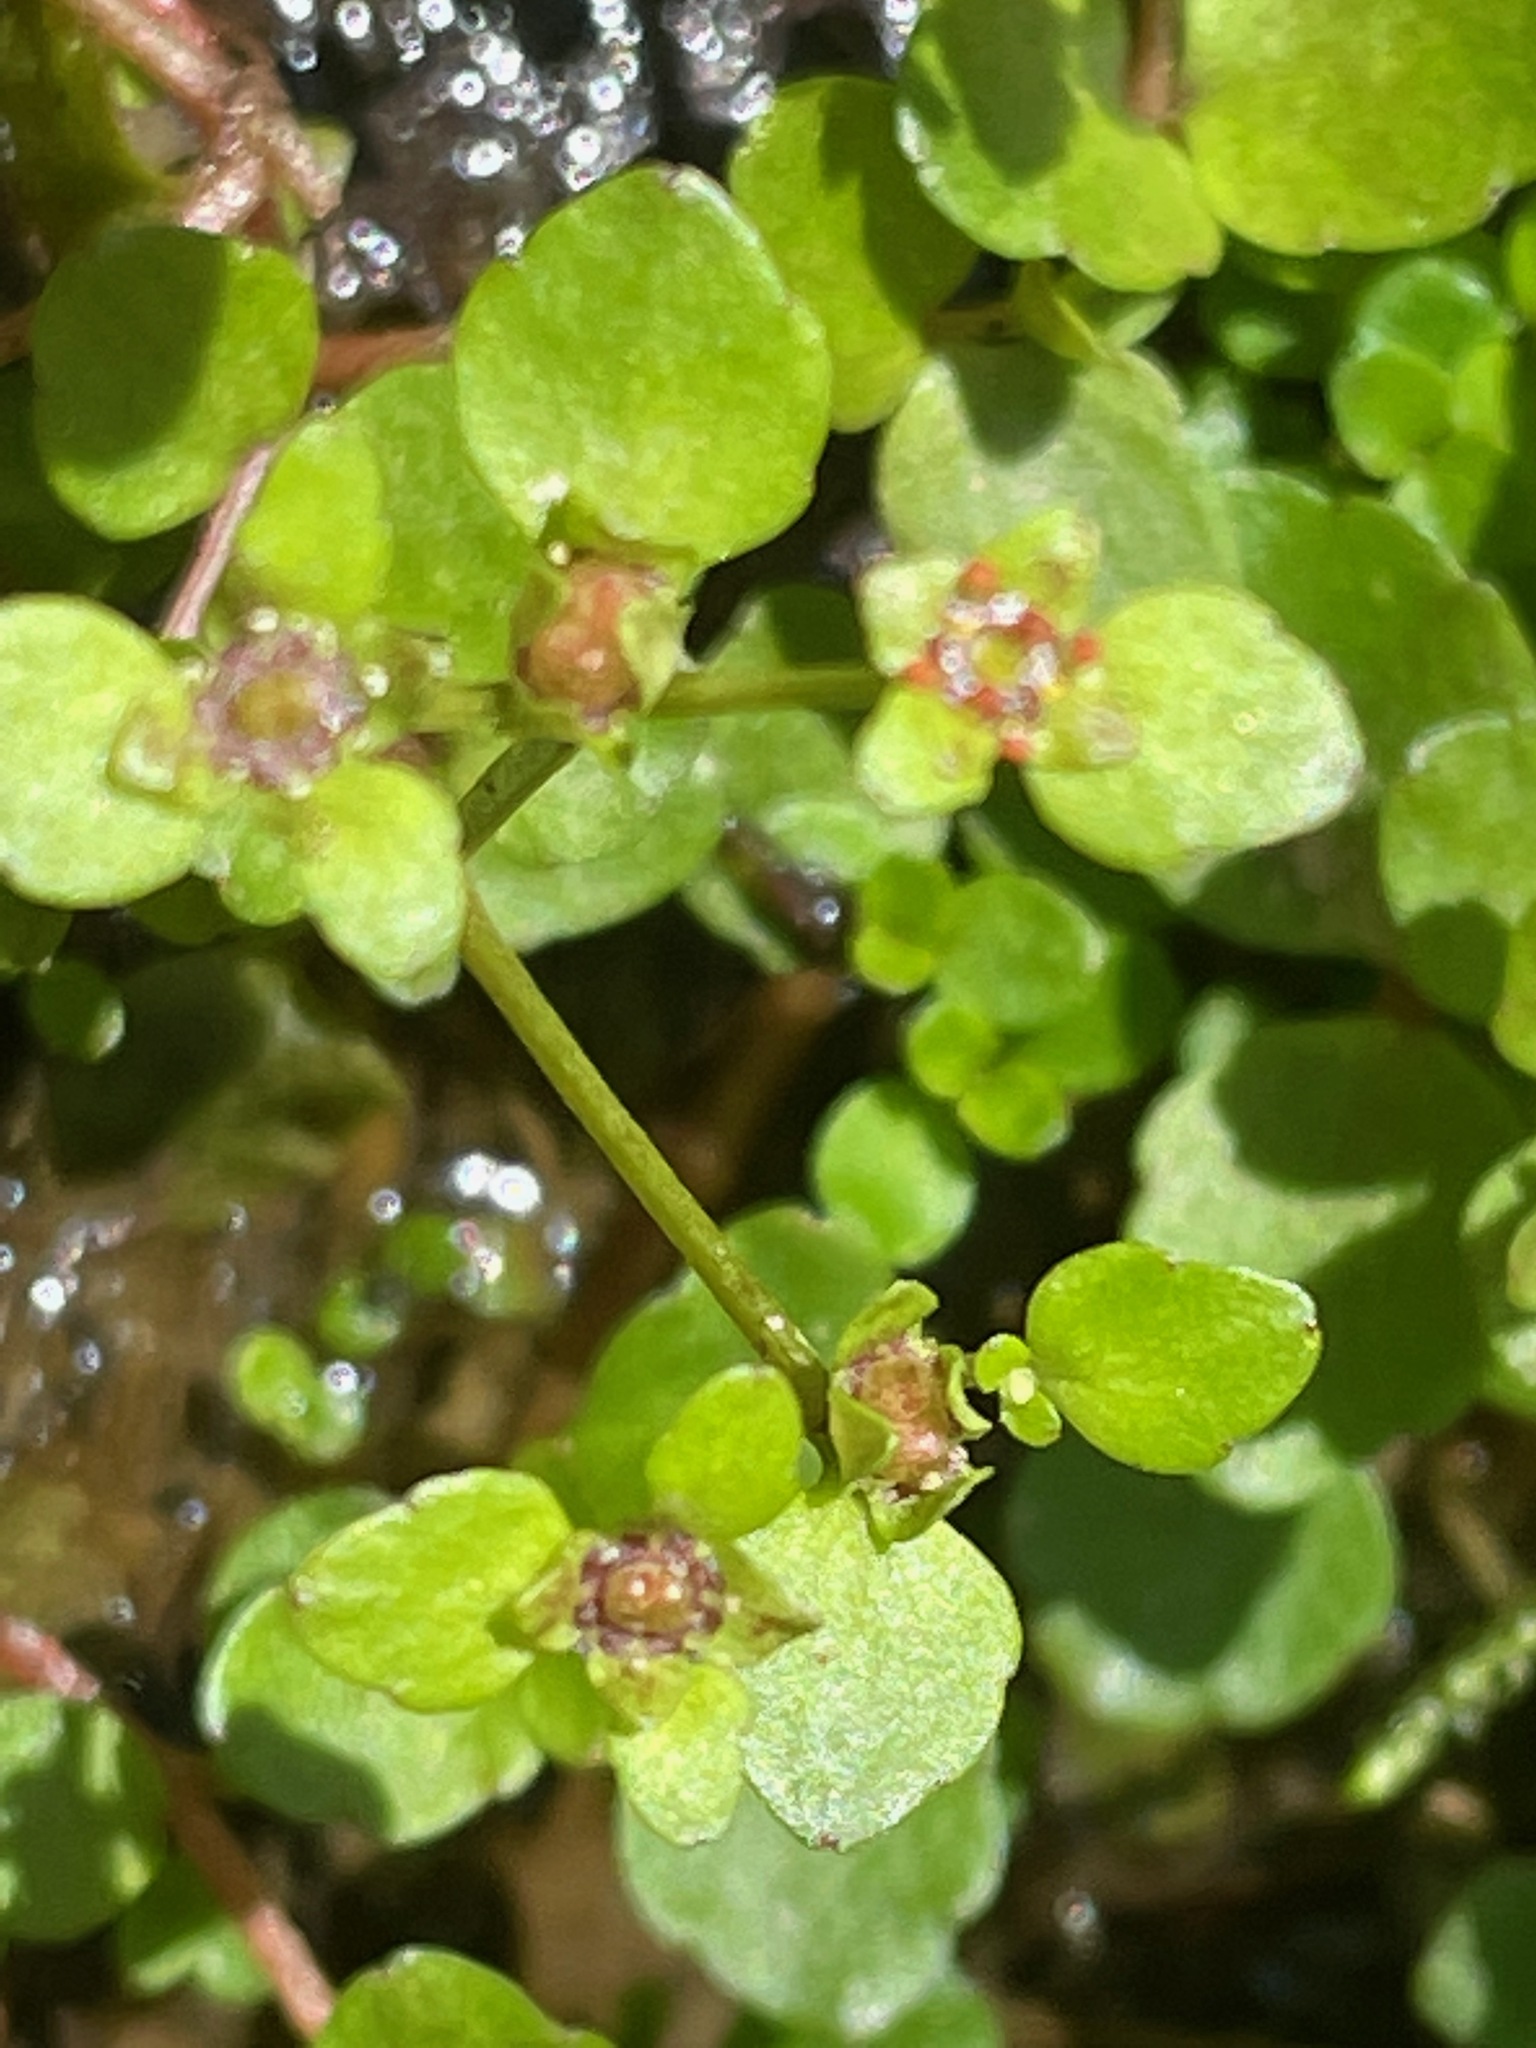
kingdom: Plantae
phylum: Tracheophyta
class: Magnoliopsida
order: Saxifragales
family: Saxifragaceae
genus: Chrysosplenium
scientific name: Chrysosplenium americanum
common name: American golden-saxifrage
